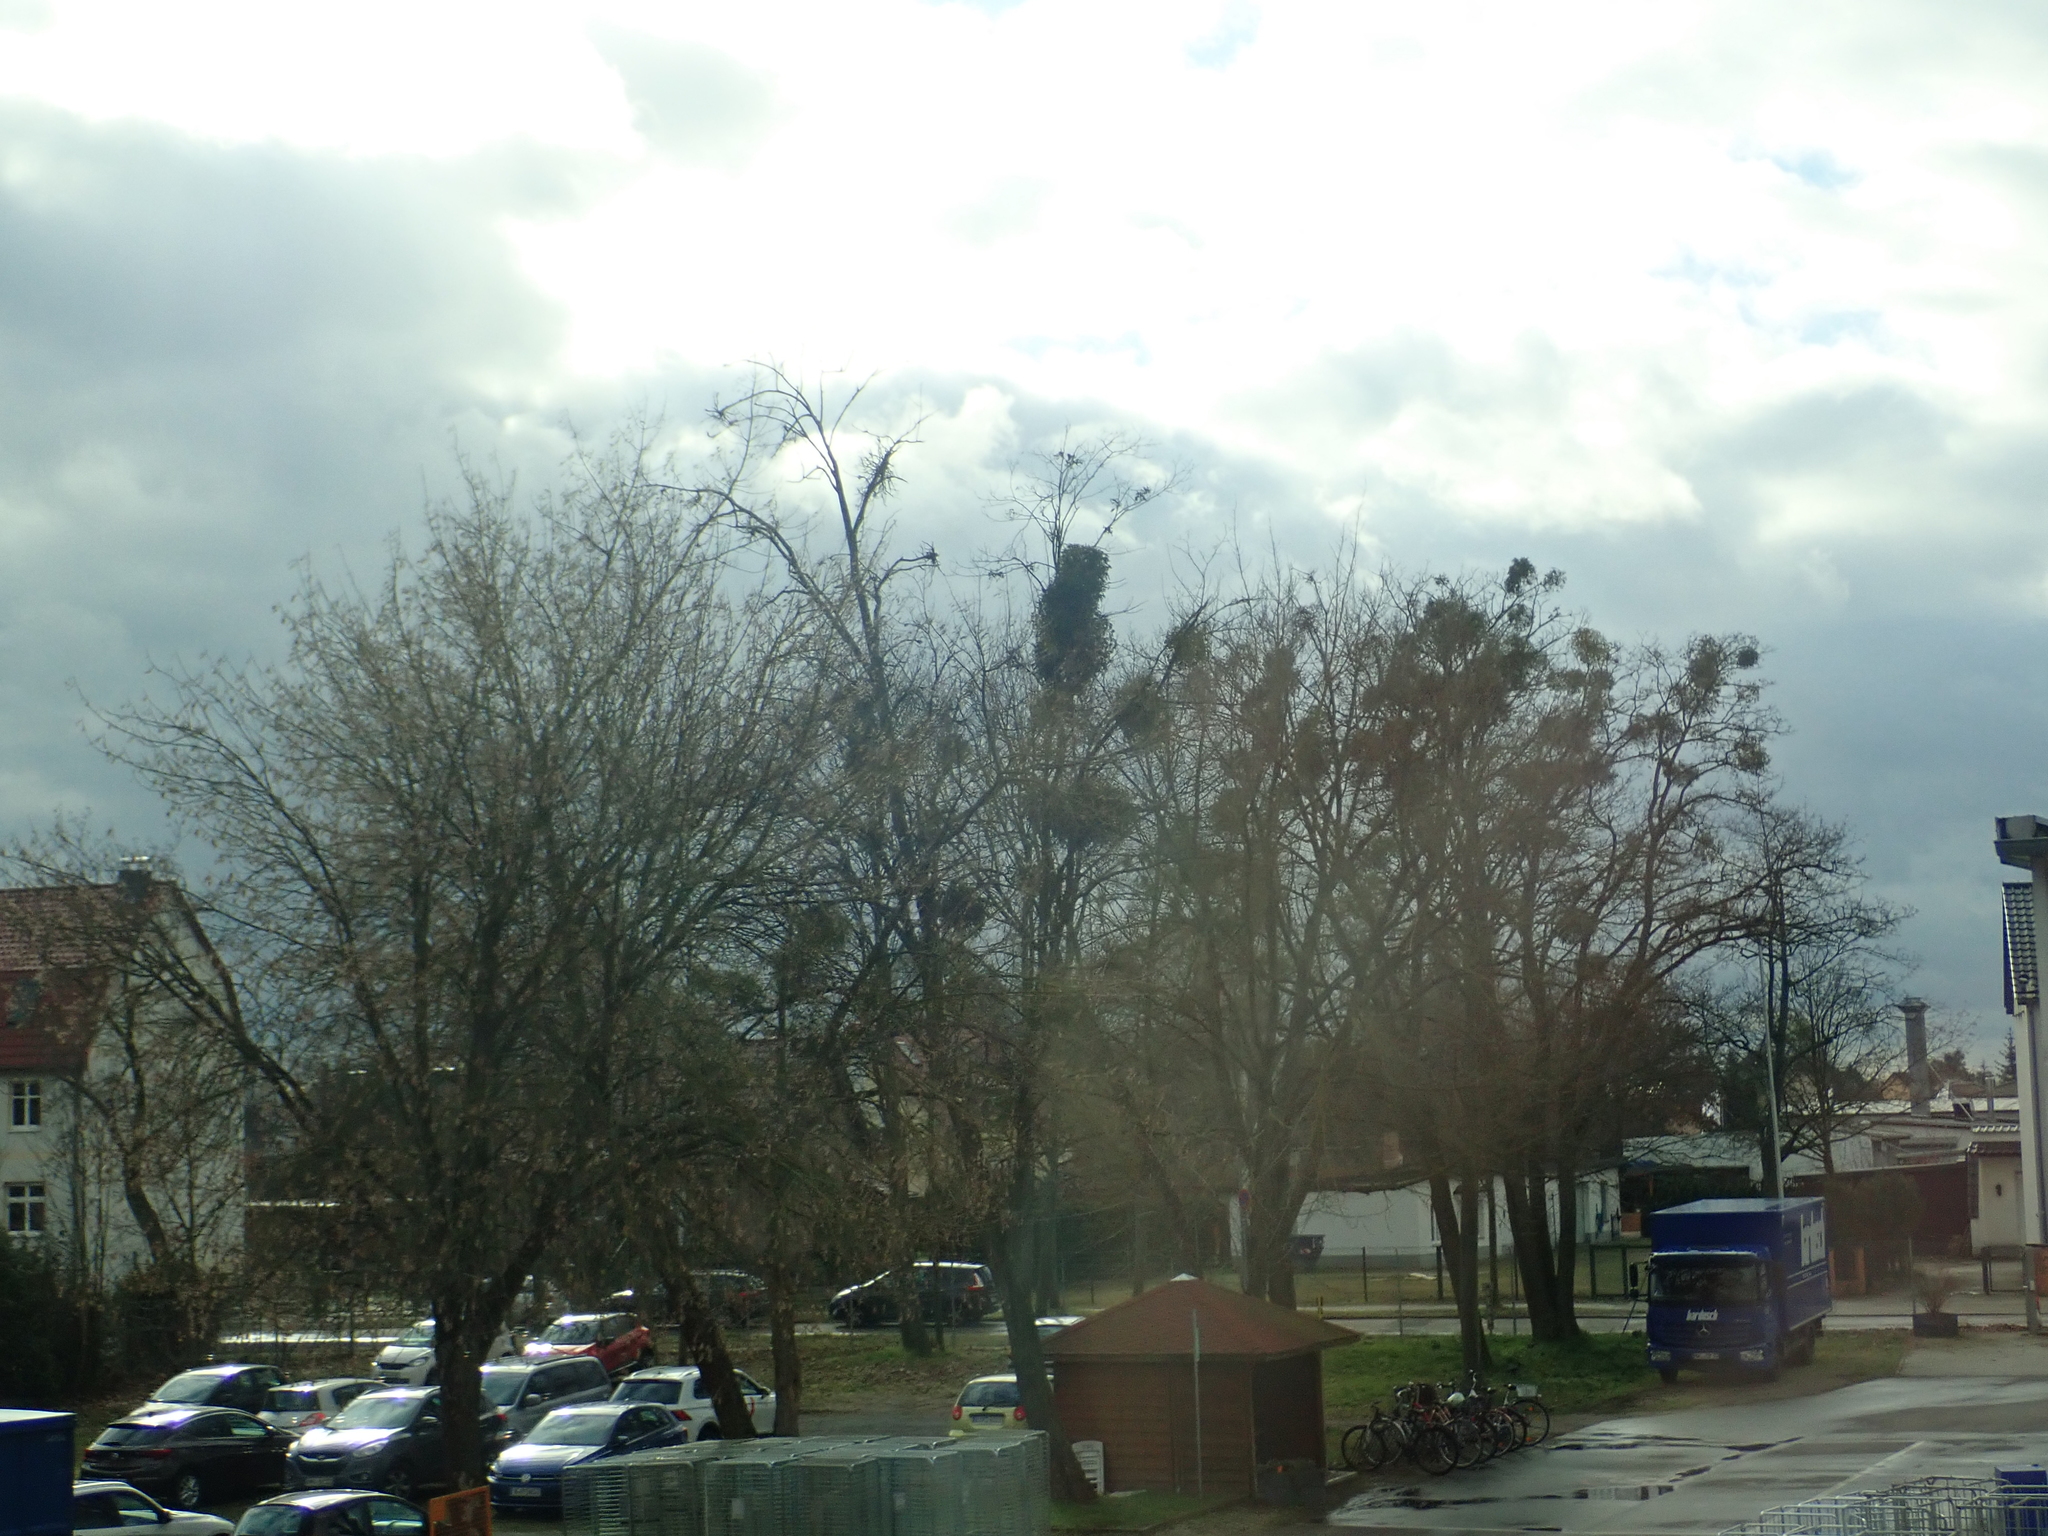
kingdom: Plantae
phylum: Tracheophyta
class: Magnoliopsida
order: Santalales
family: Viscaceae
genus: Viscum
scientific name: Viscum album
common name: Mistletoe
